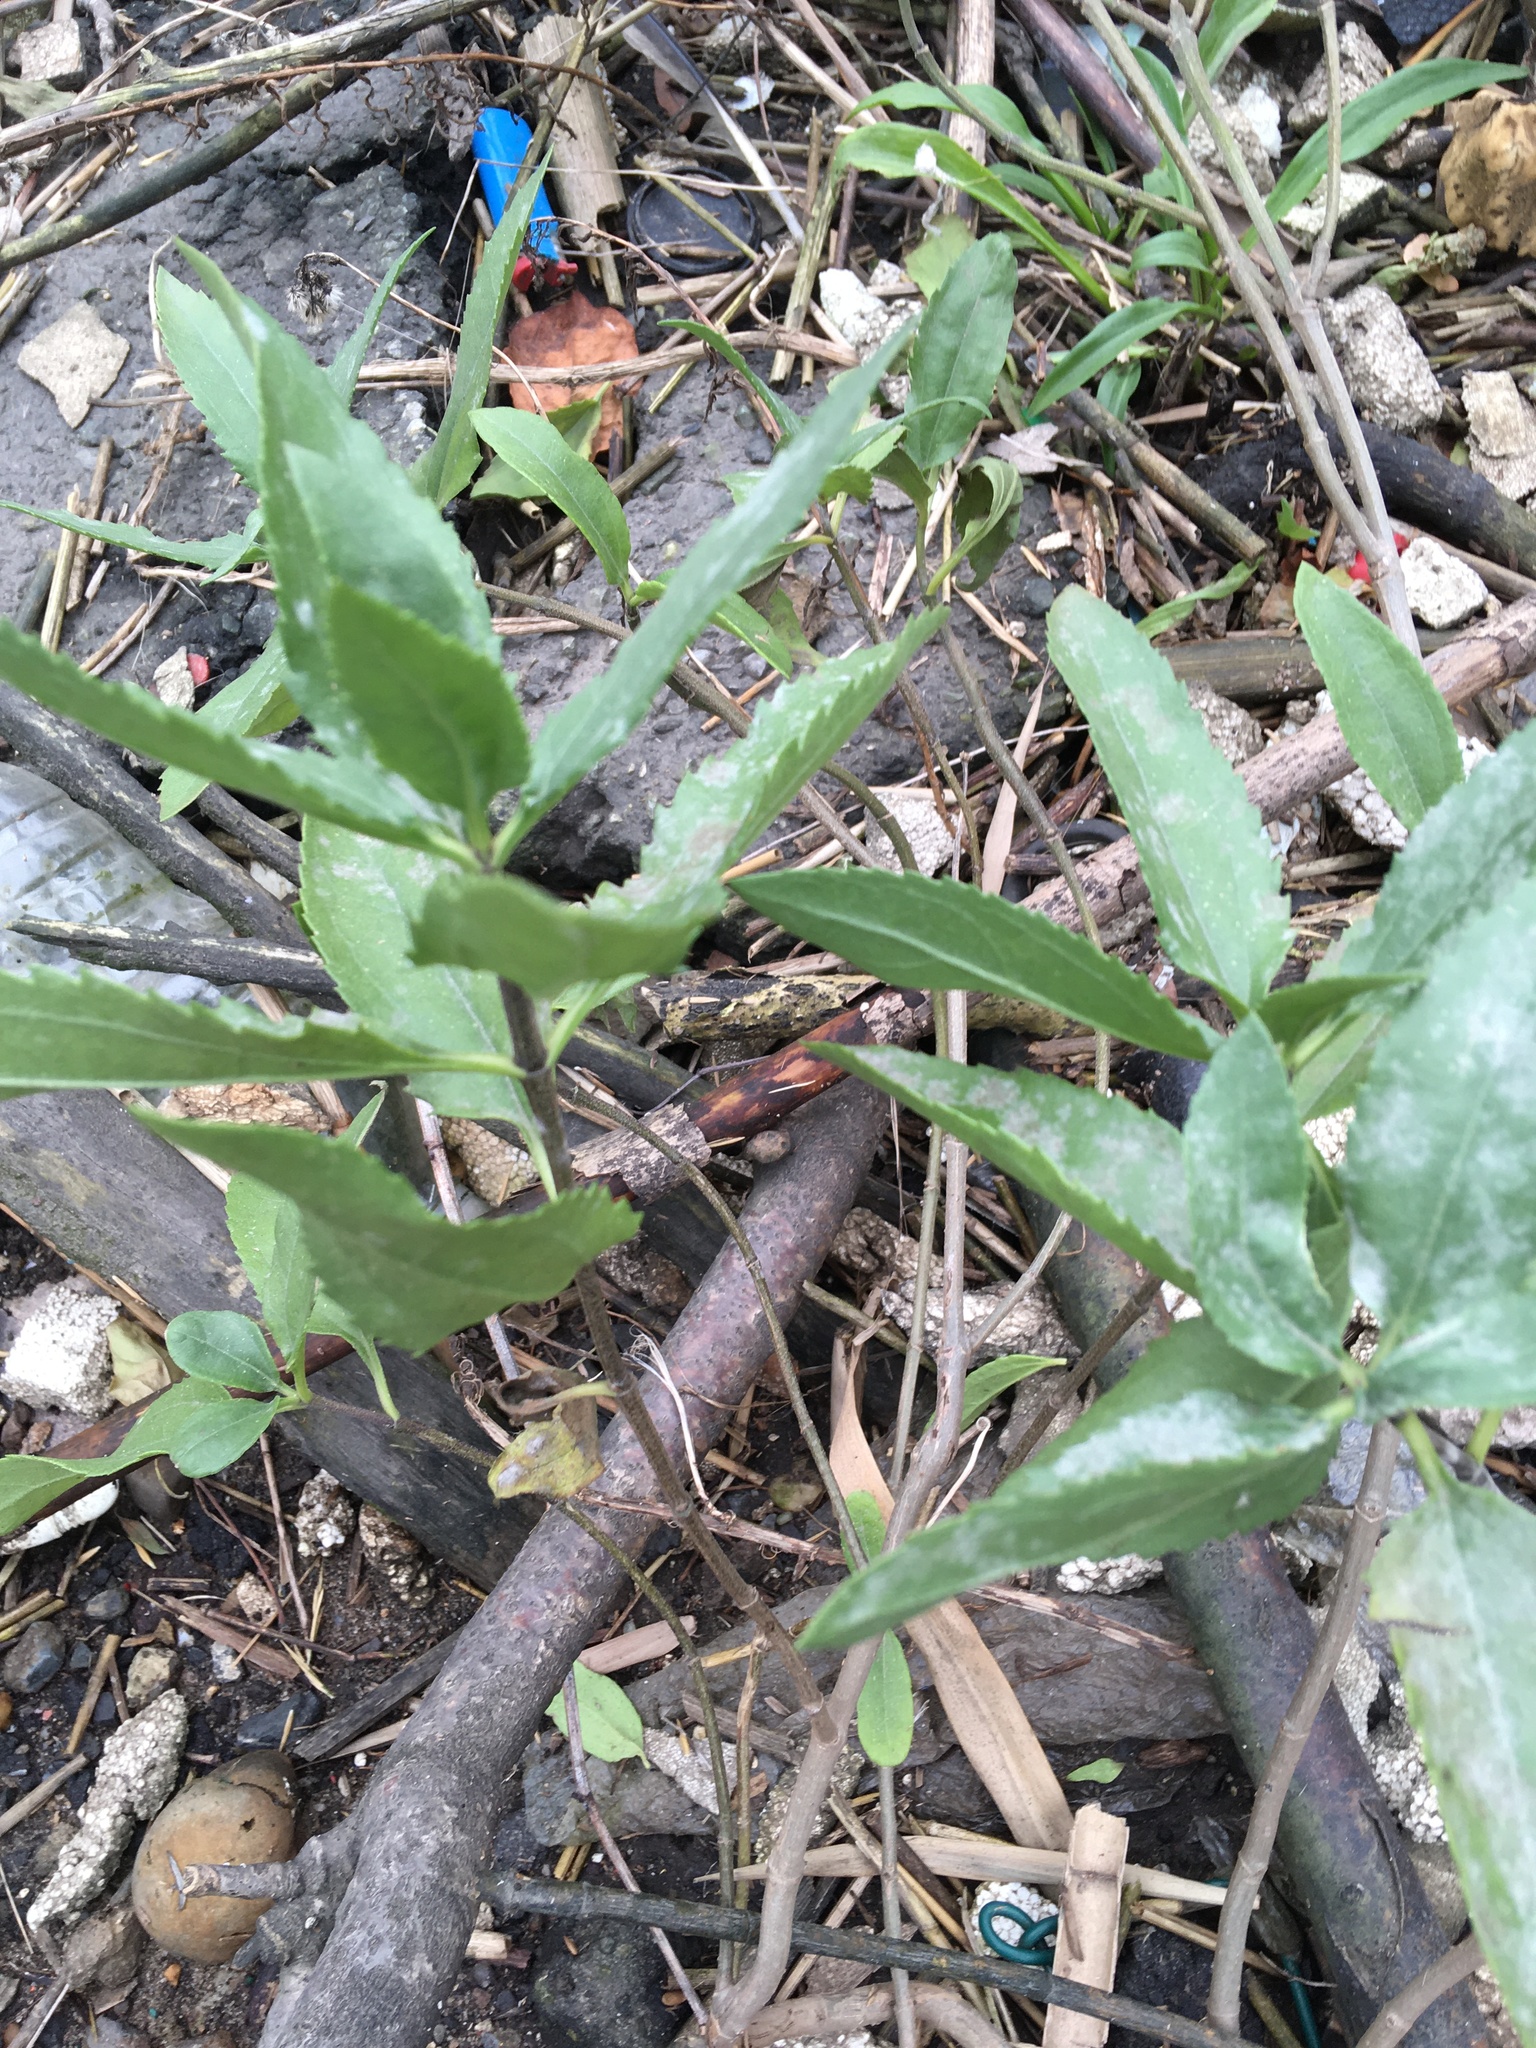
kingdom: Plantae
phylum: Tracheophyta
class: Magnoliopsida
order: Asterales
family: Asteraceae
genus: Iva
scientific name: Iva frutescens
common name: Big-leaved marsh-elder
